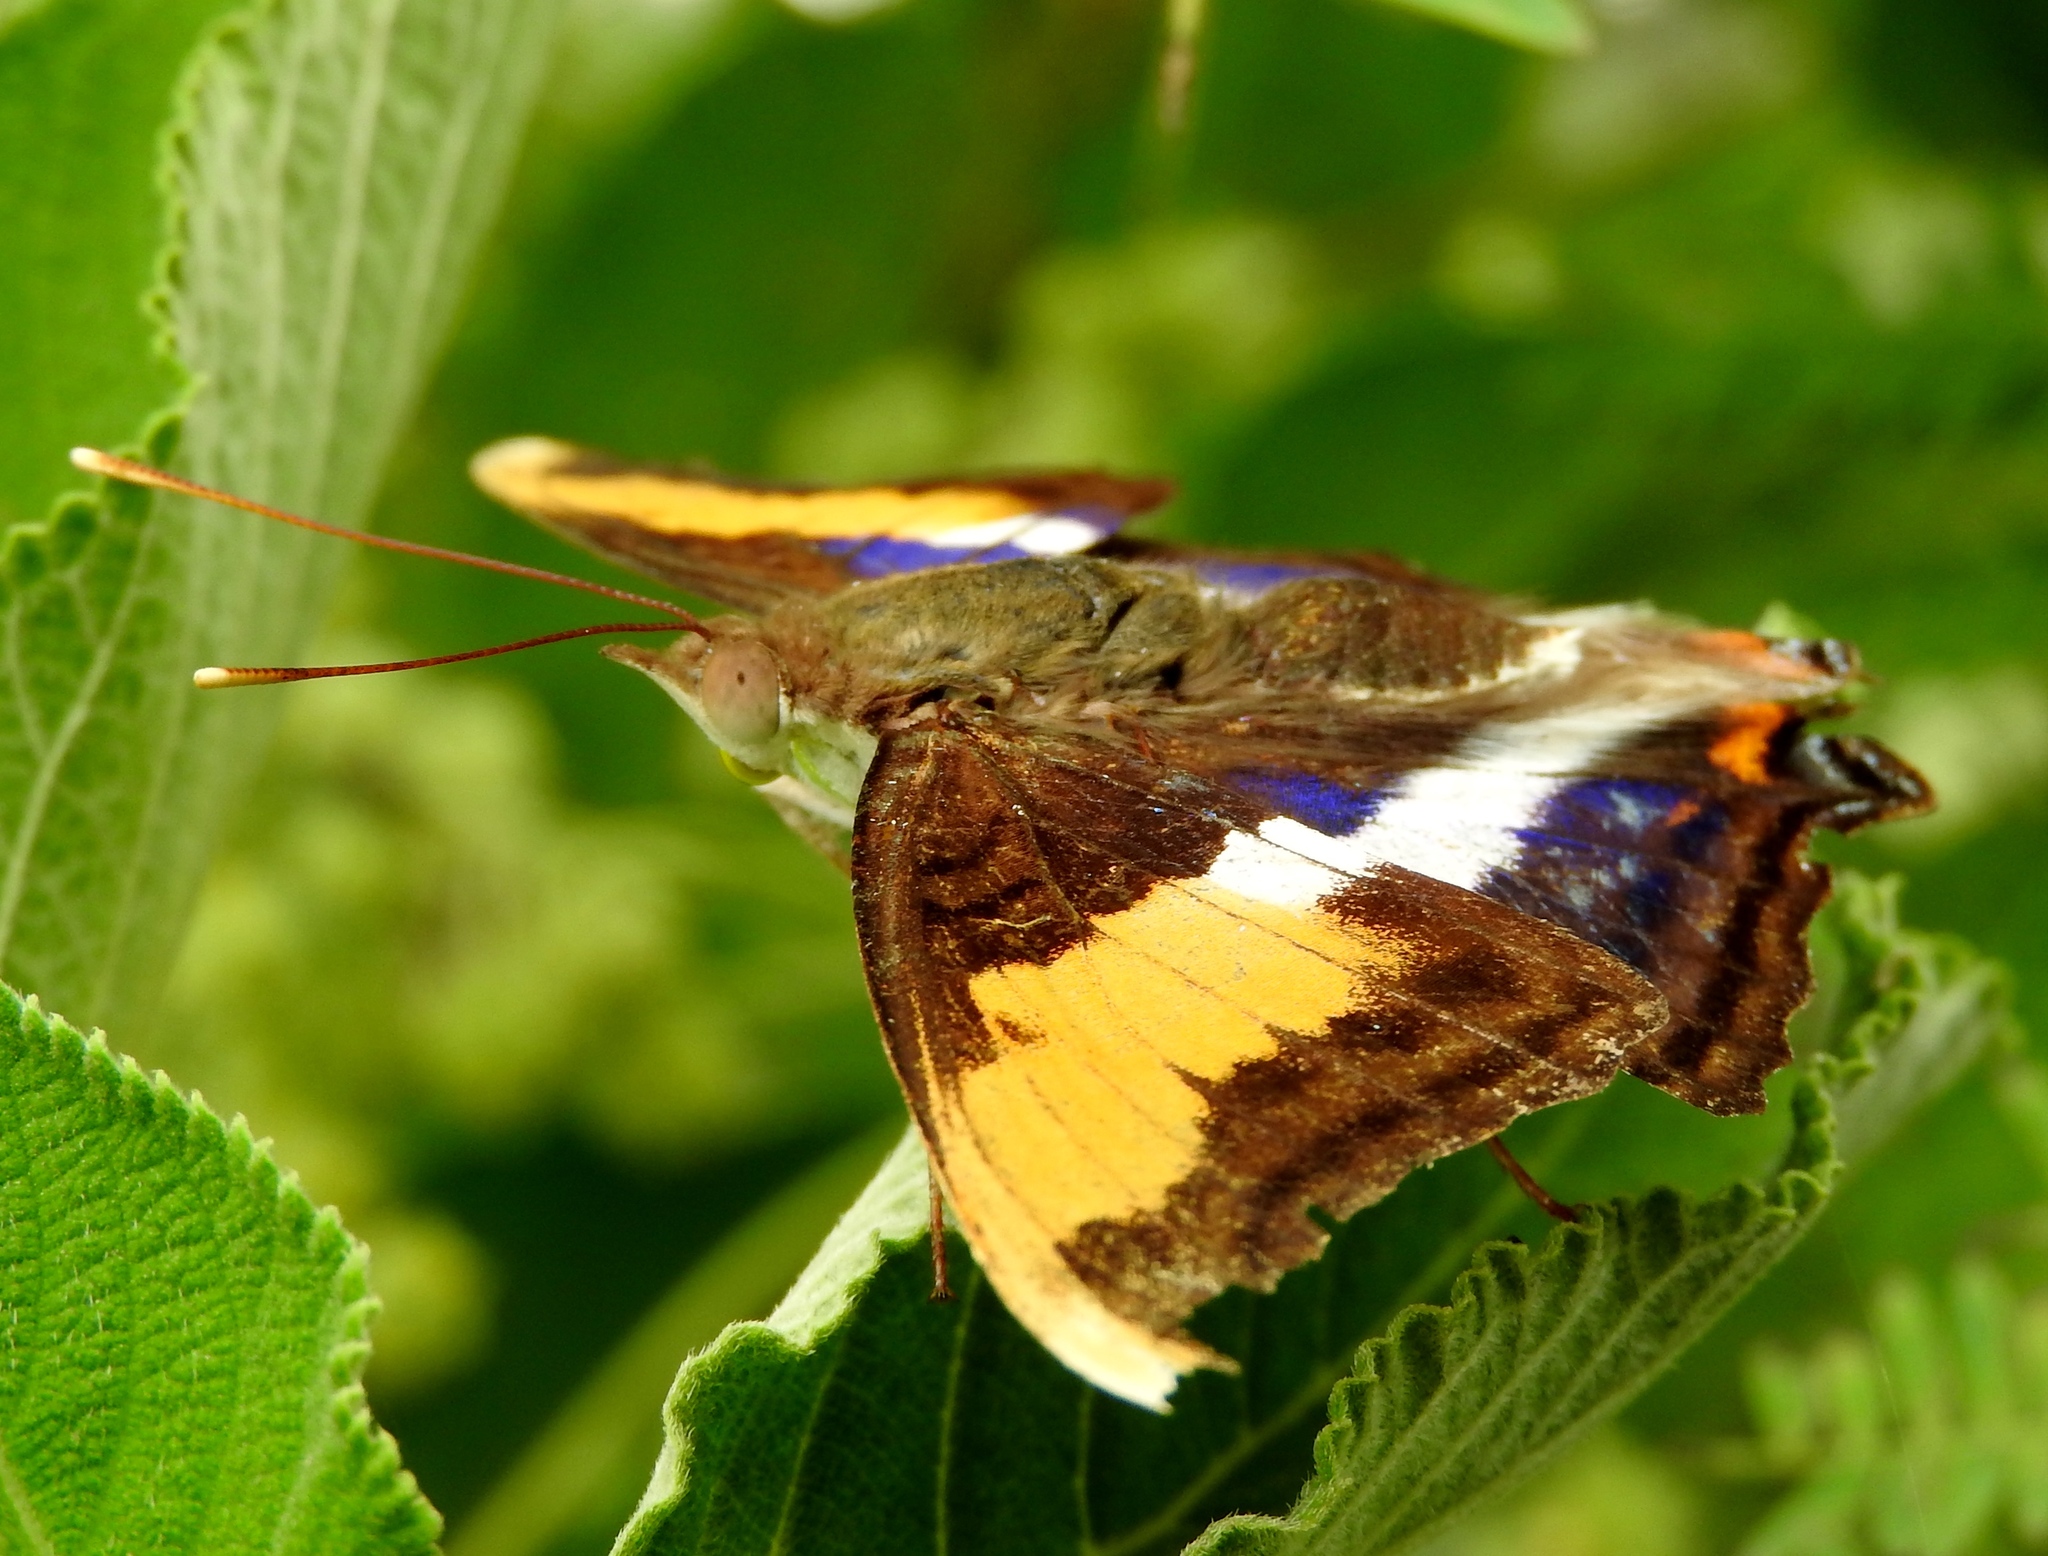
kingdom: Animalia
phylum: Arthropoda
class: Insecta
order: Lepidoptera
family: Nymphalidae
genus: Doxocopa
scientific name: Doxocopa laure
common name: Silver emperor
